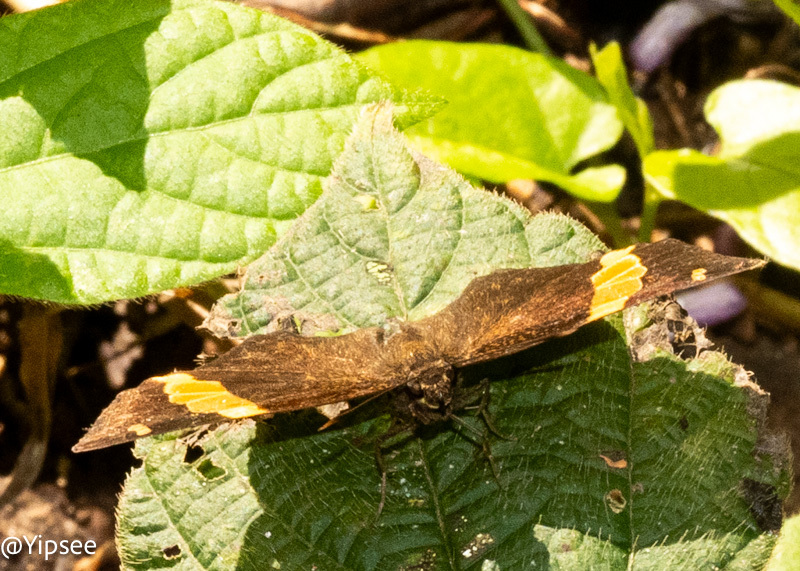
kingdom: Animalia
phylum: Arthropoda
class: Insecta
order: Lepidoptera
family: Hesperiidae
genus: Aurivittia
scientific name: Aurivittia
